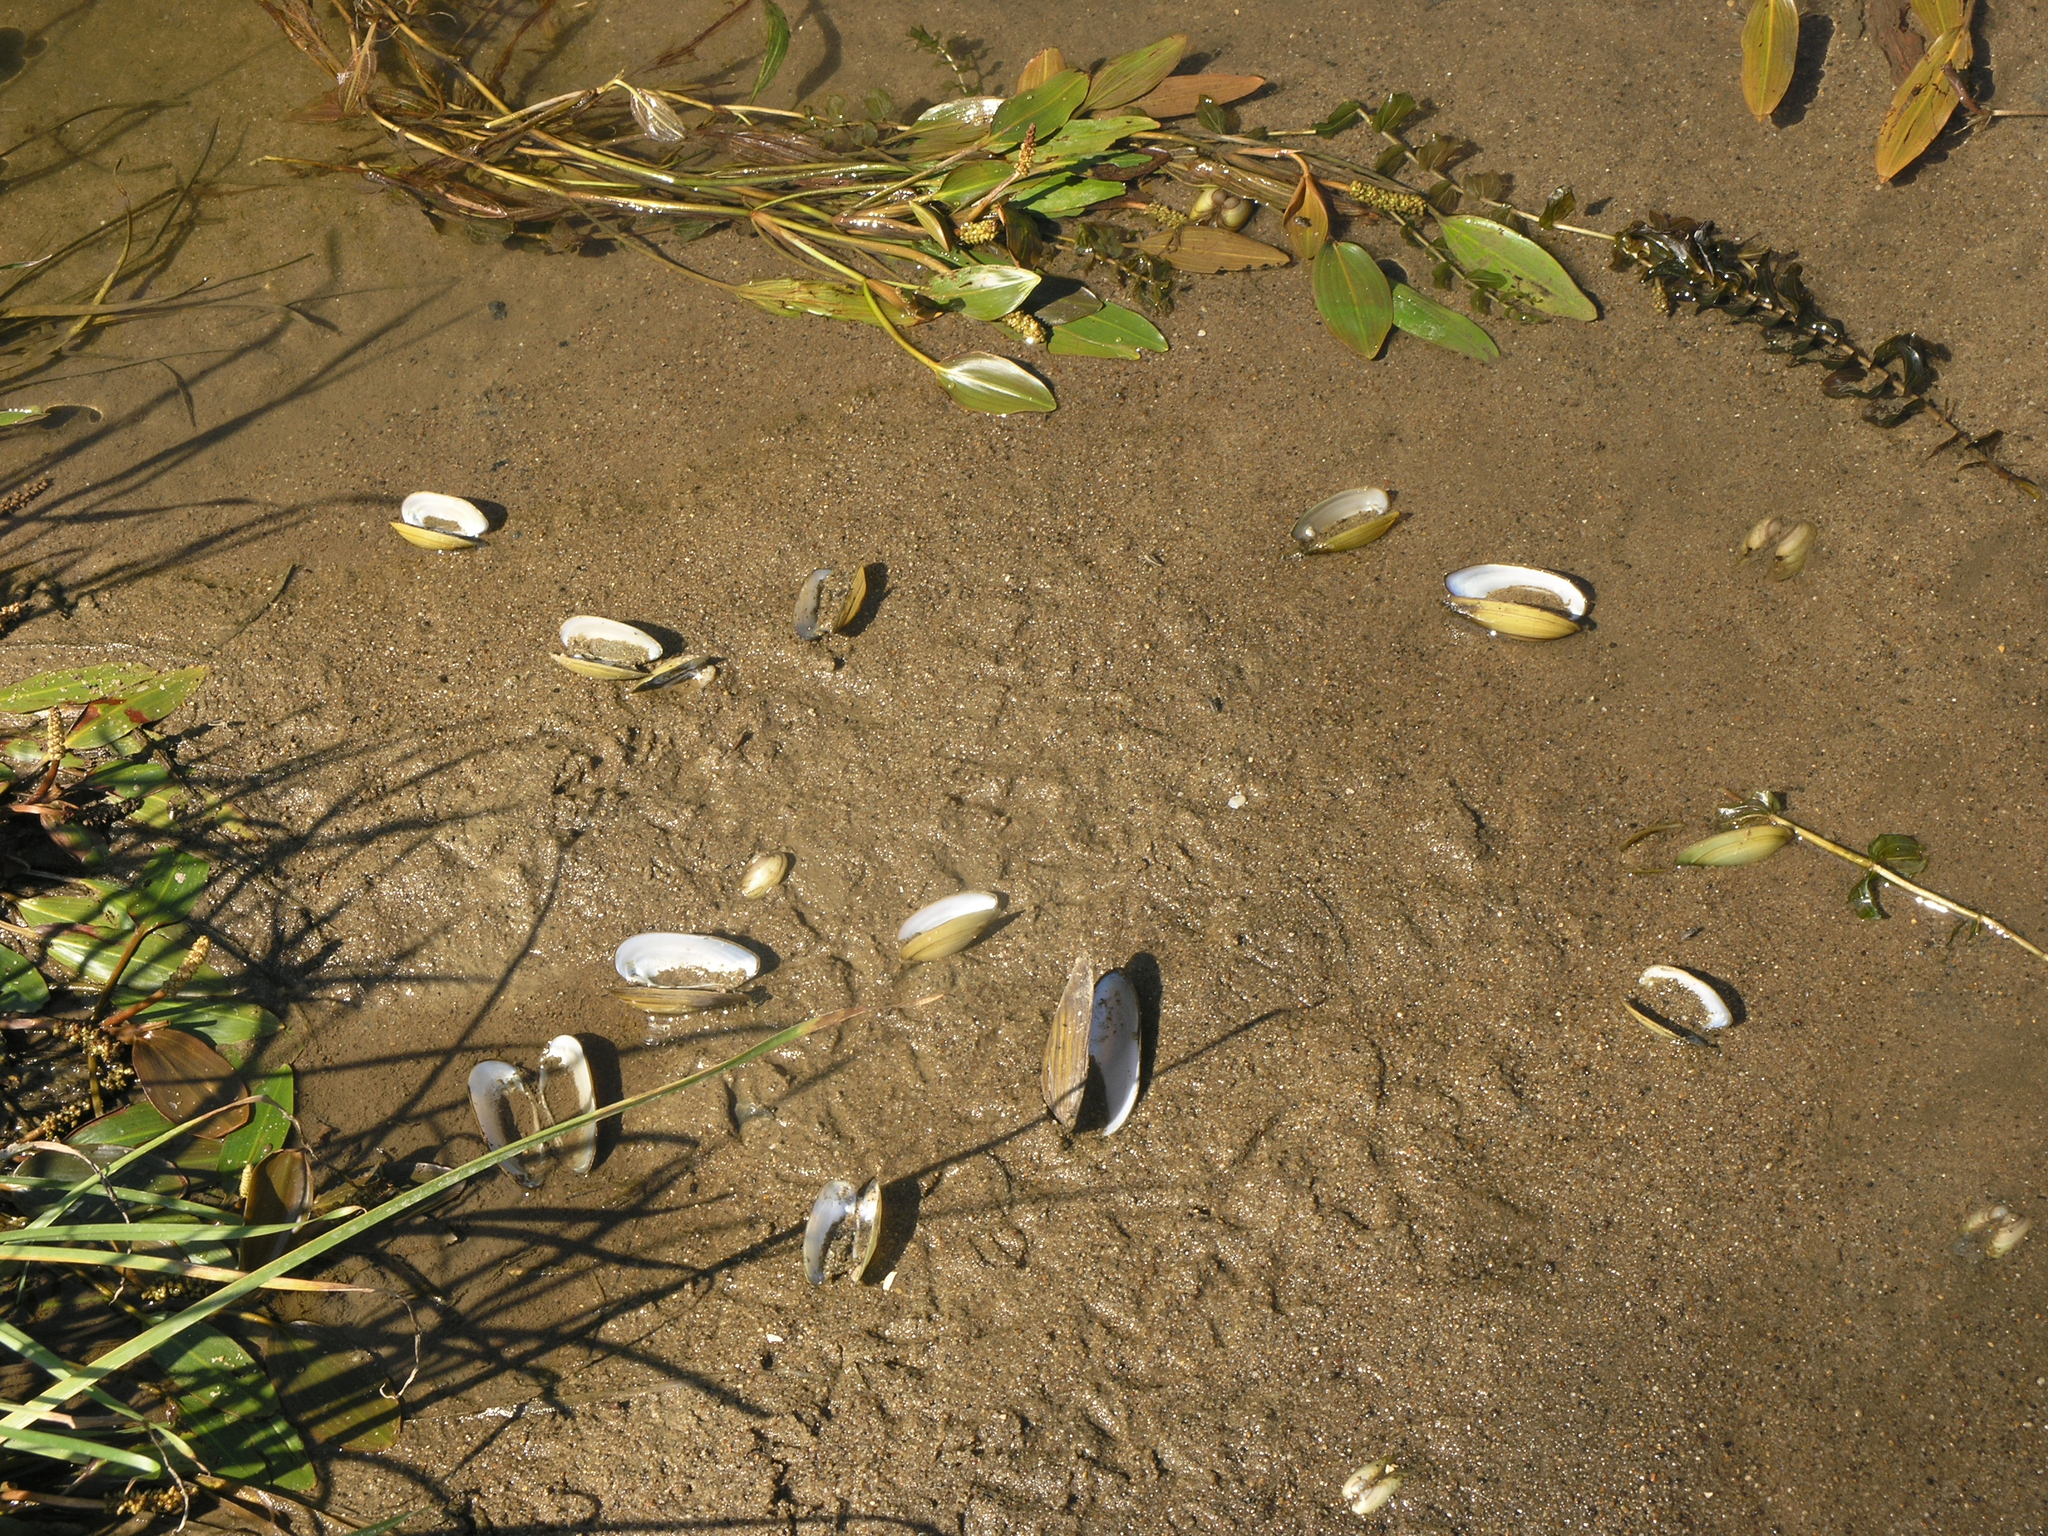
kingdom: Animalia
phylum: Mollusca
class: Bivalvia
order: Unionida
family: Unionidae
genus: Unio
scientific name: Unio pictorum
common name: Painter's mussel
